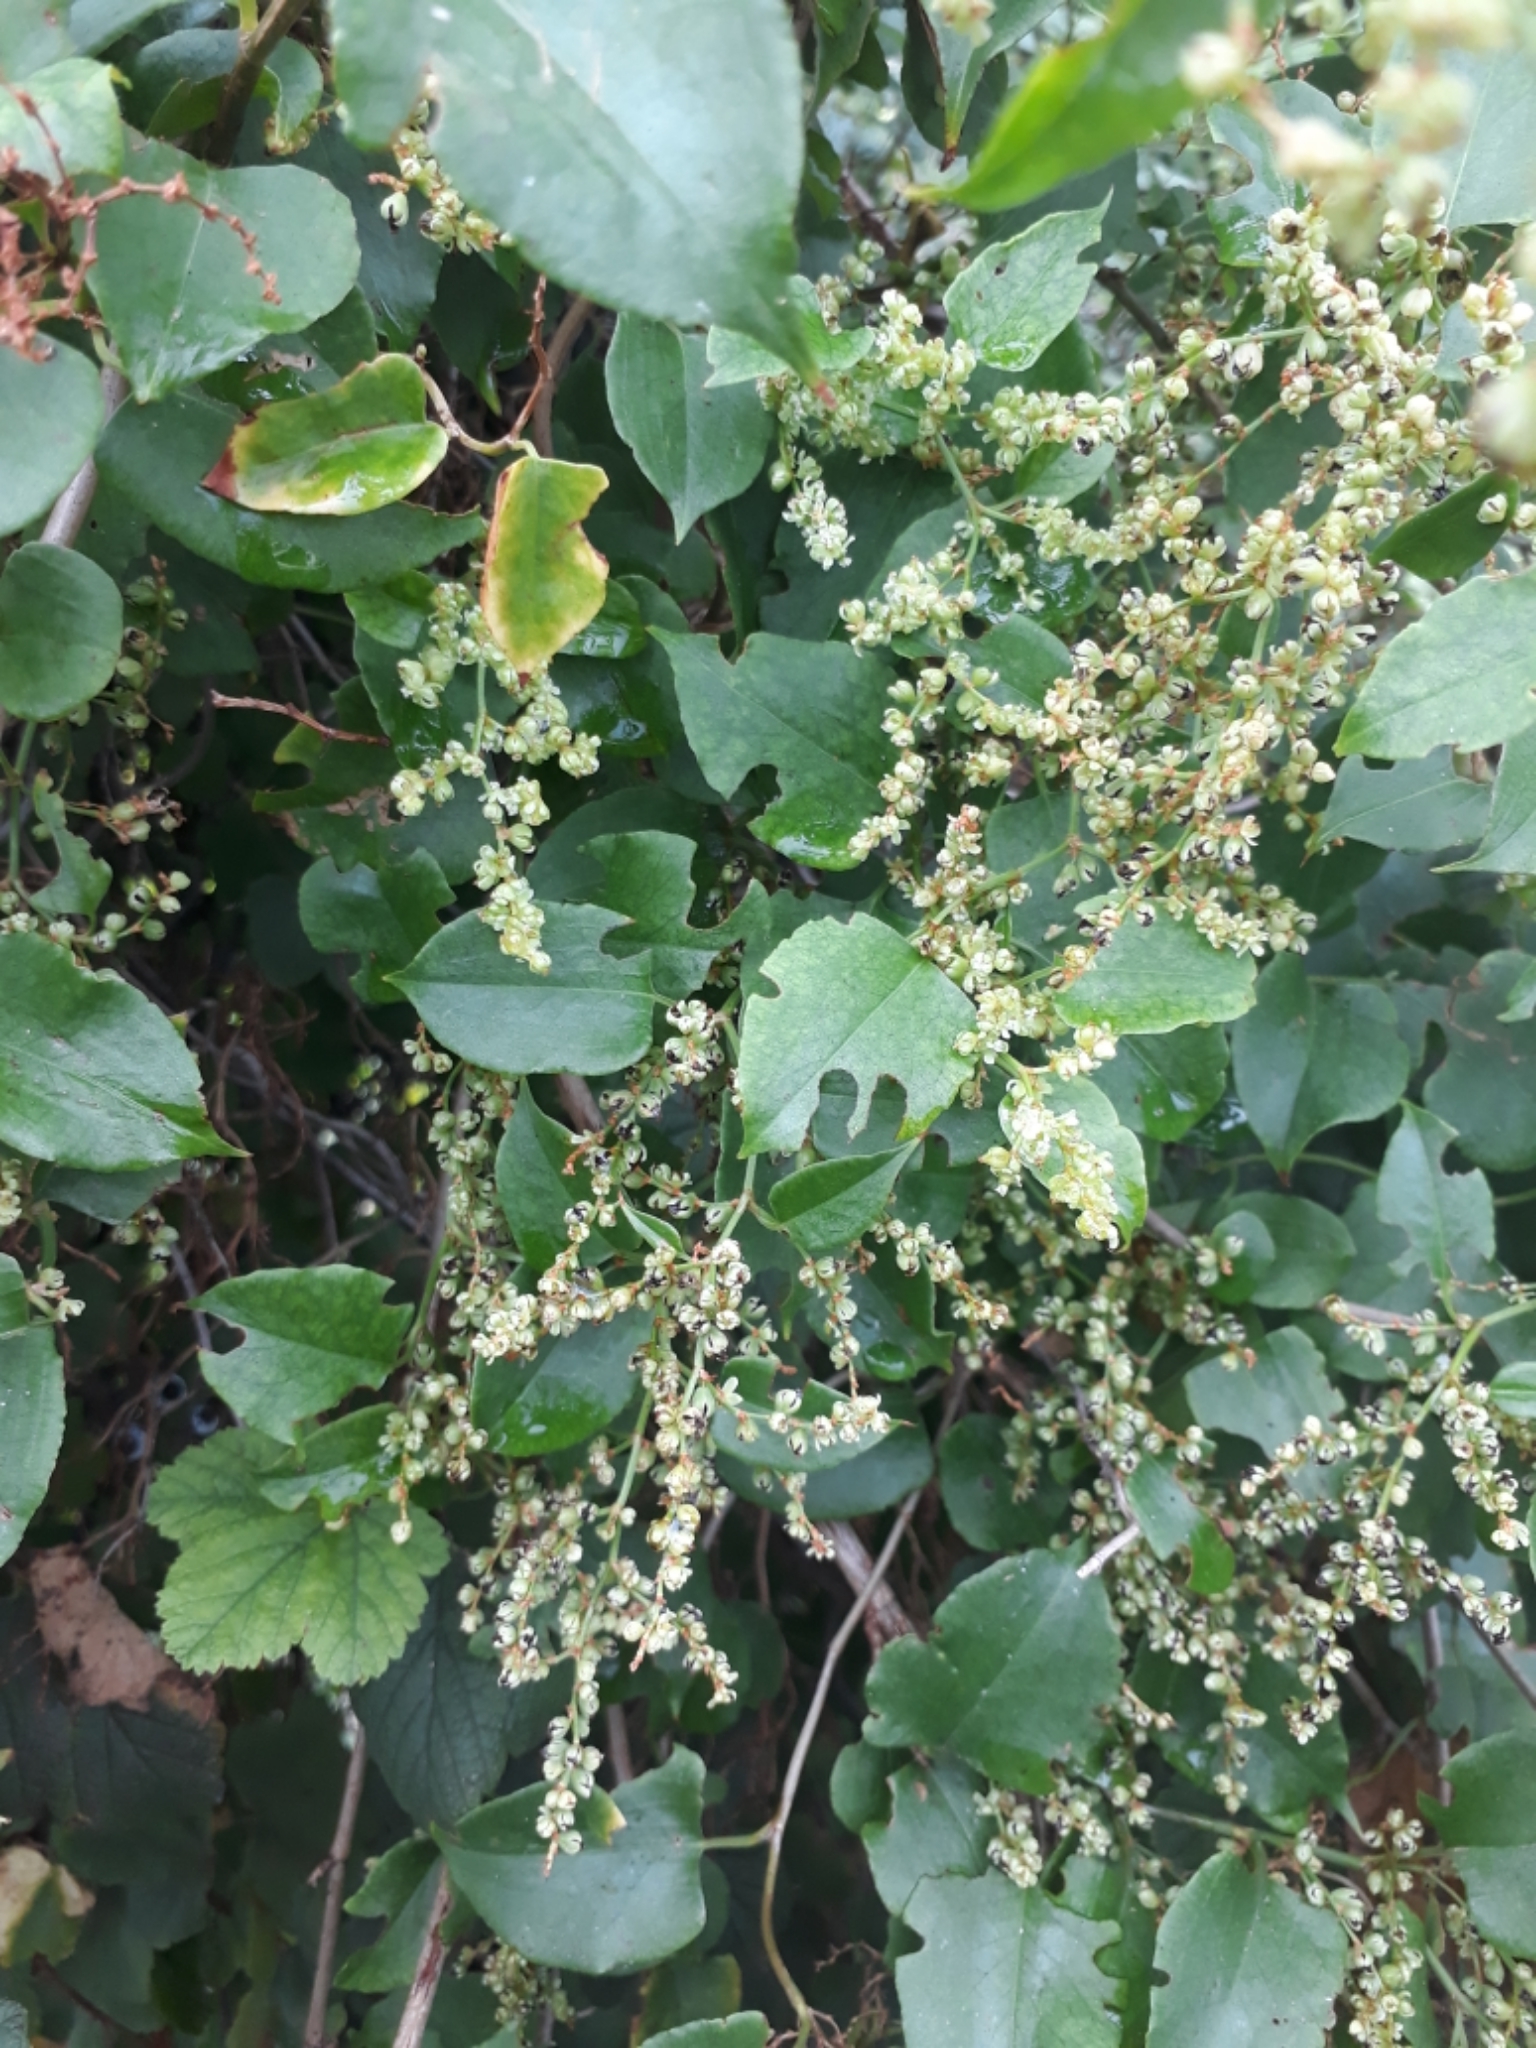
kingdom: Plantae
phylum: Tracheophyta
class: Magnoliopsida
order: Caryophyllales
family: Polygonaceae
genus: Muehlenbeckia
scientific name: Muehlenbeckia australis
